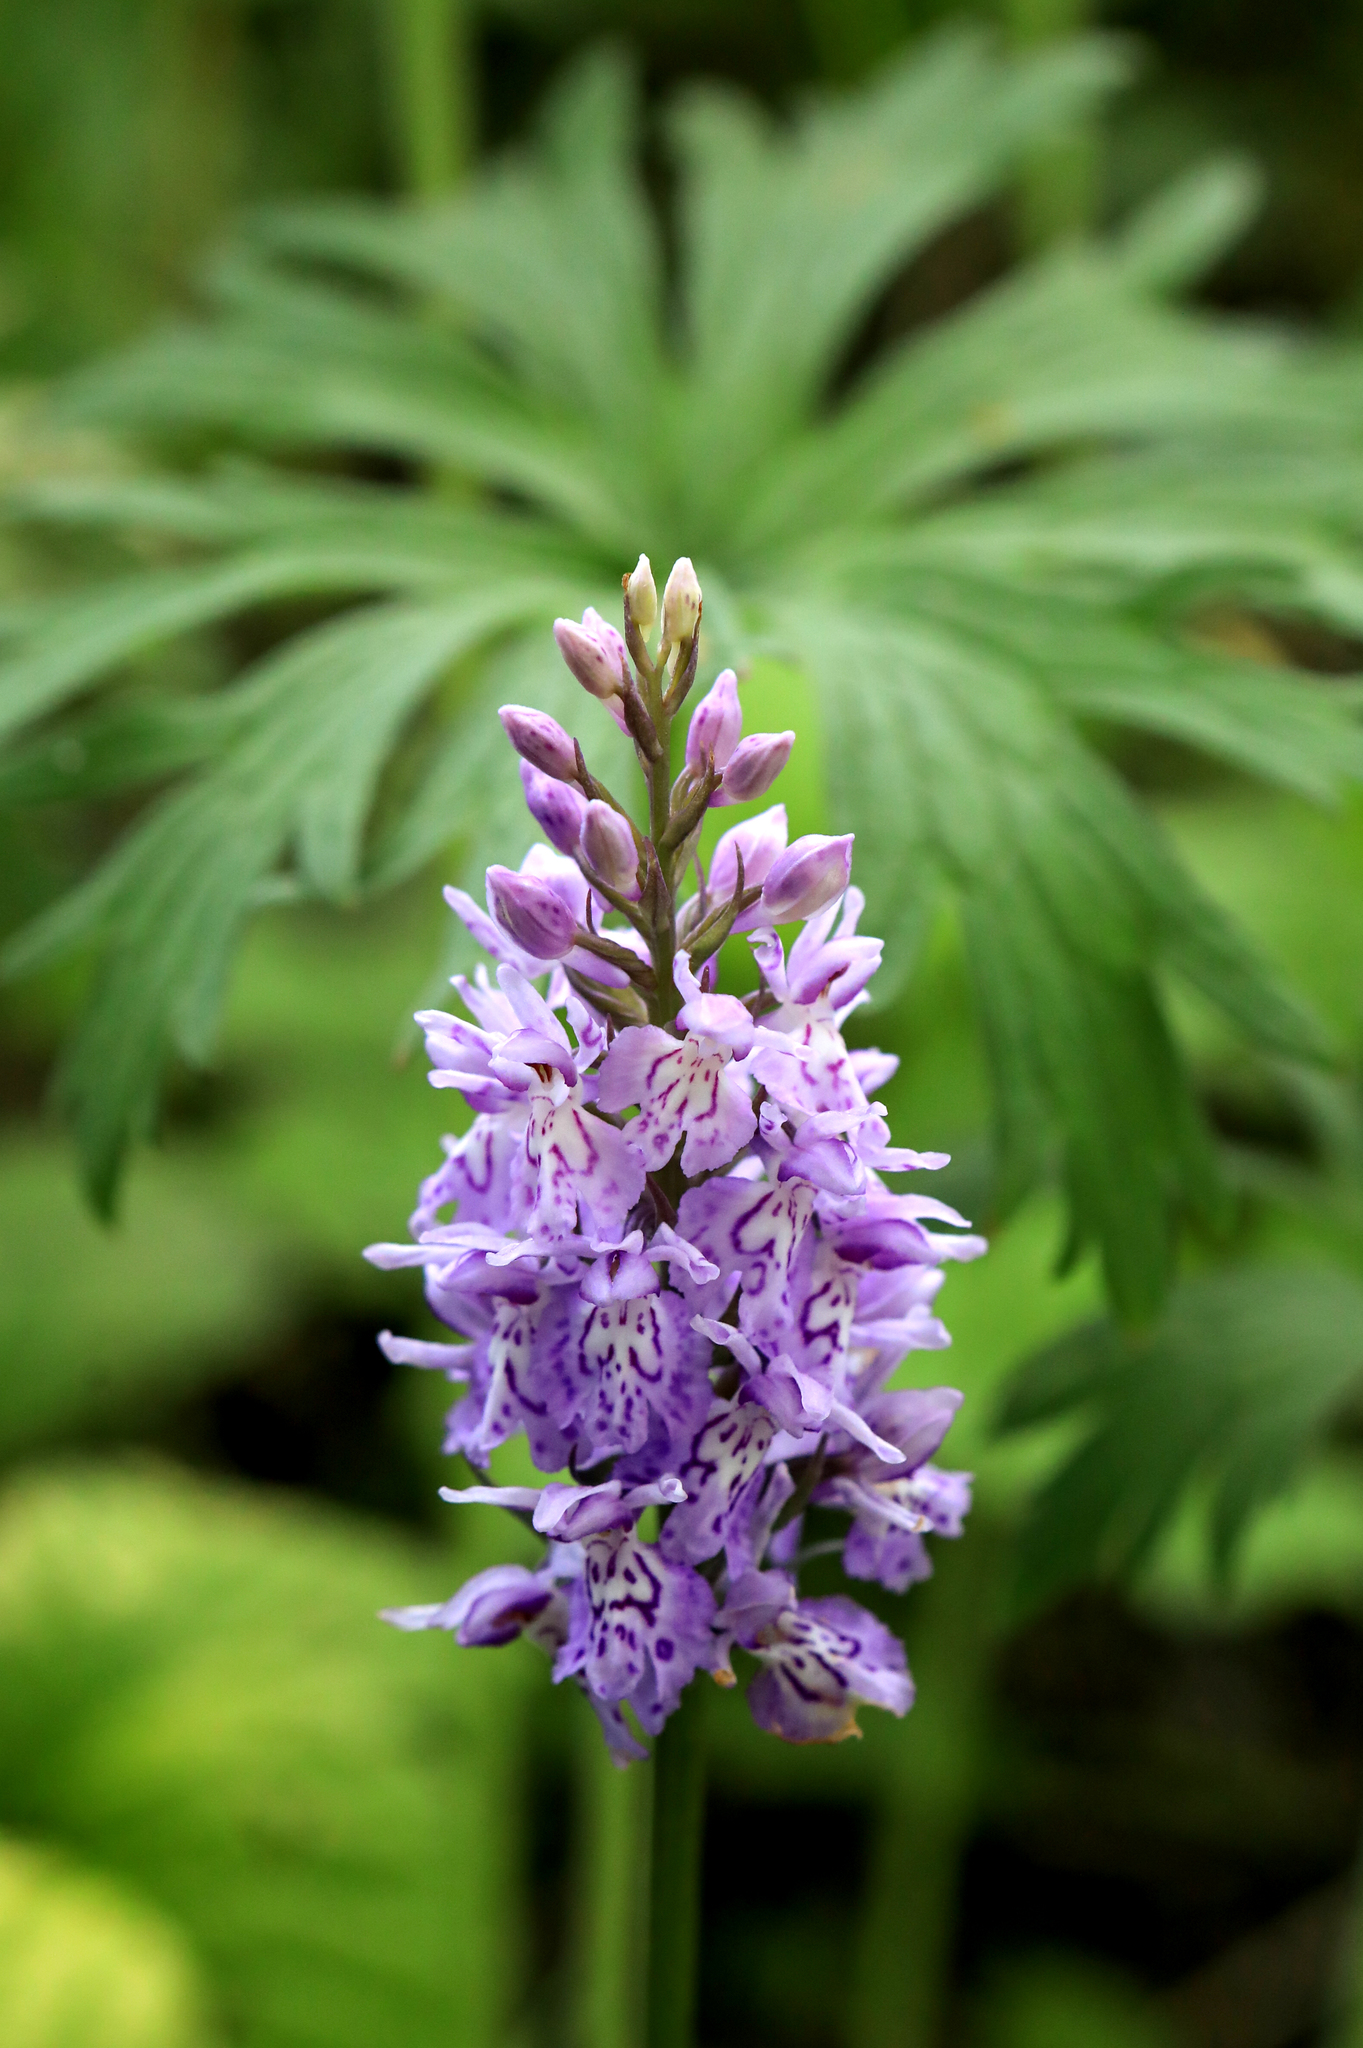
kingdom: Plantae
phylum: Tracheophyta
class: Liliopsida
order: Asparagales
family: Orchidaceae
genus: Dactylorhiza
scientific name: Dactylorhiza maculata
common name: Heath spotted-orchid
